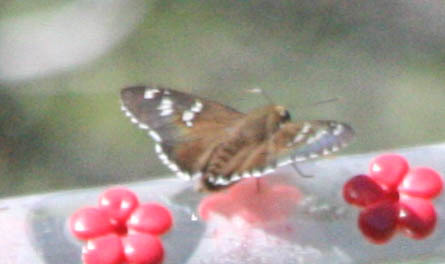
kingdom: Animalia
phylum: Arthropoda
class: Insecta
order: Lepidoptera
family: Hesperiidae
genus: Pyrrhopyge
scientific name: Pyrrhopyge araxes
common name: Dull firetip
